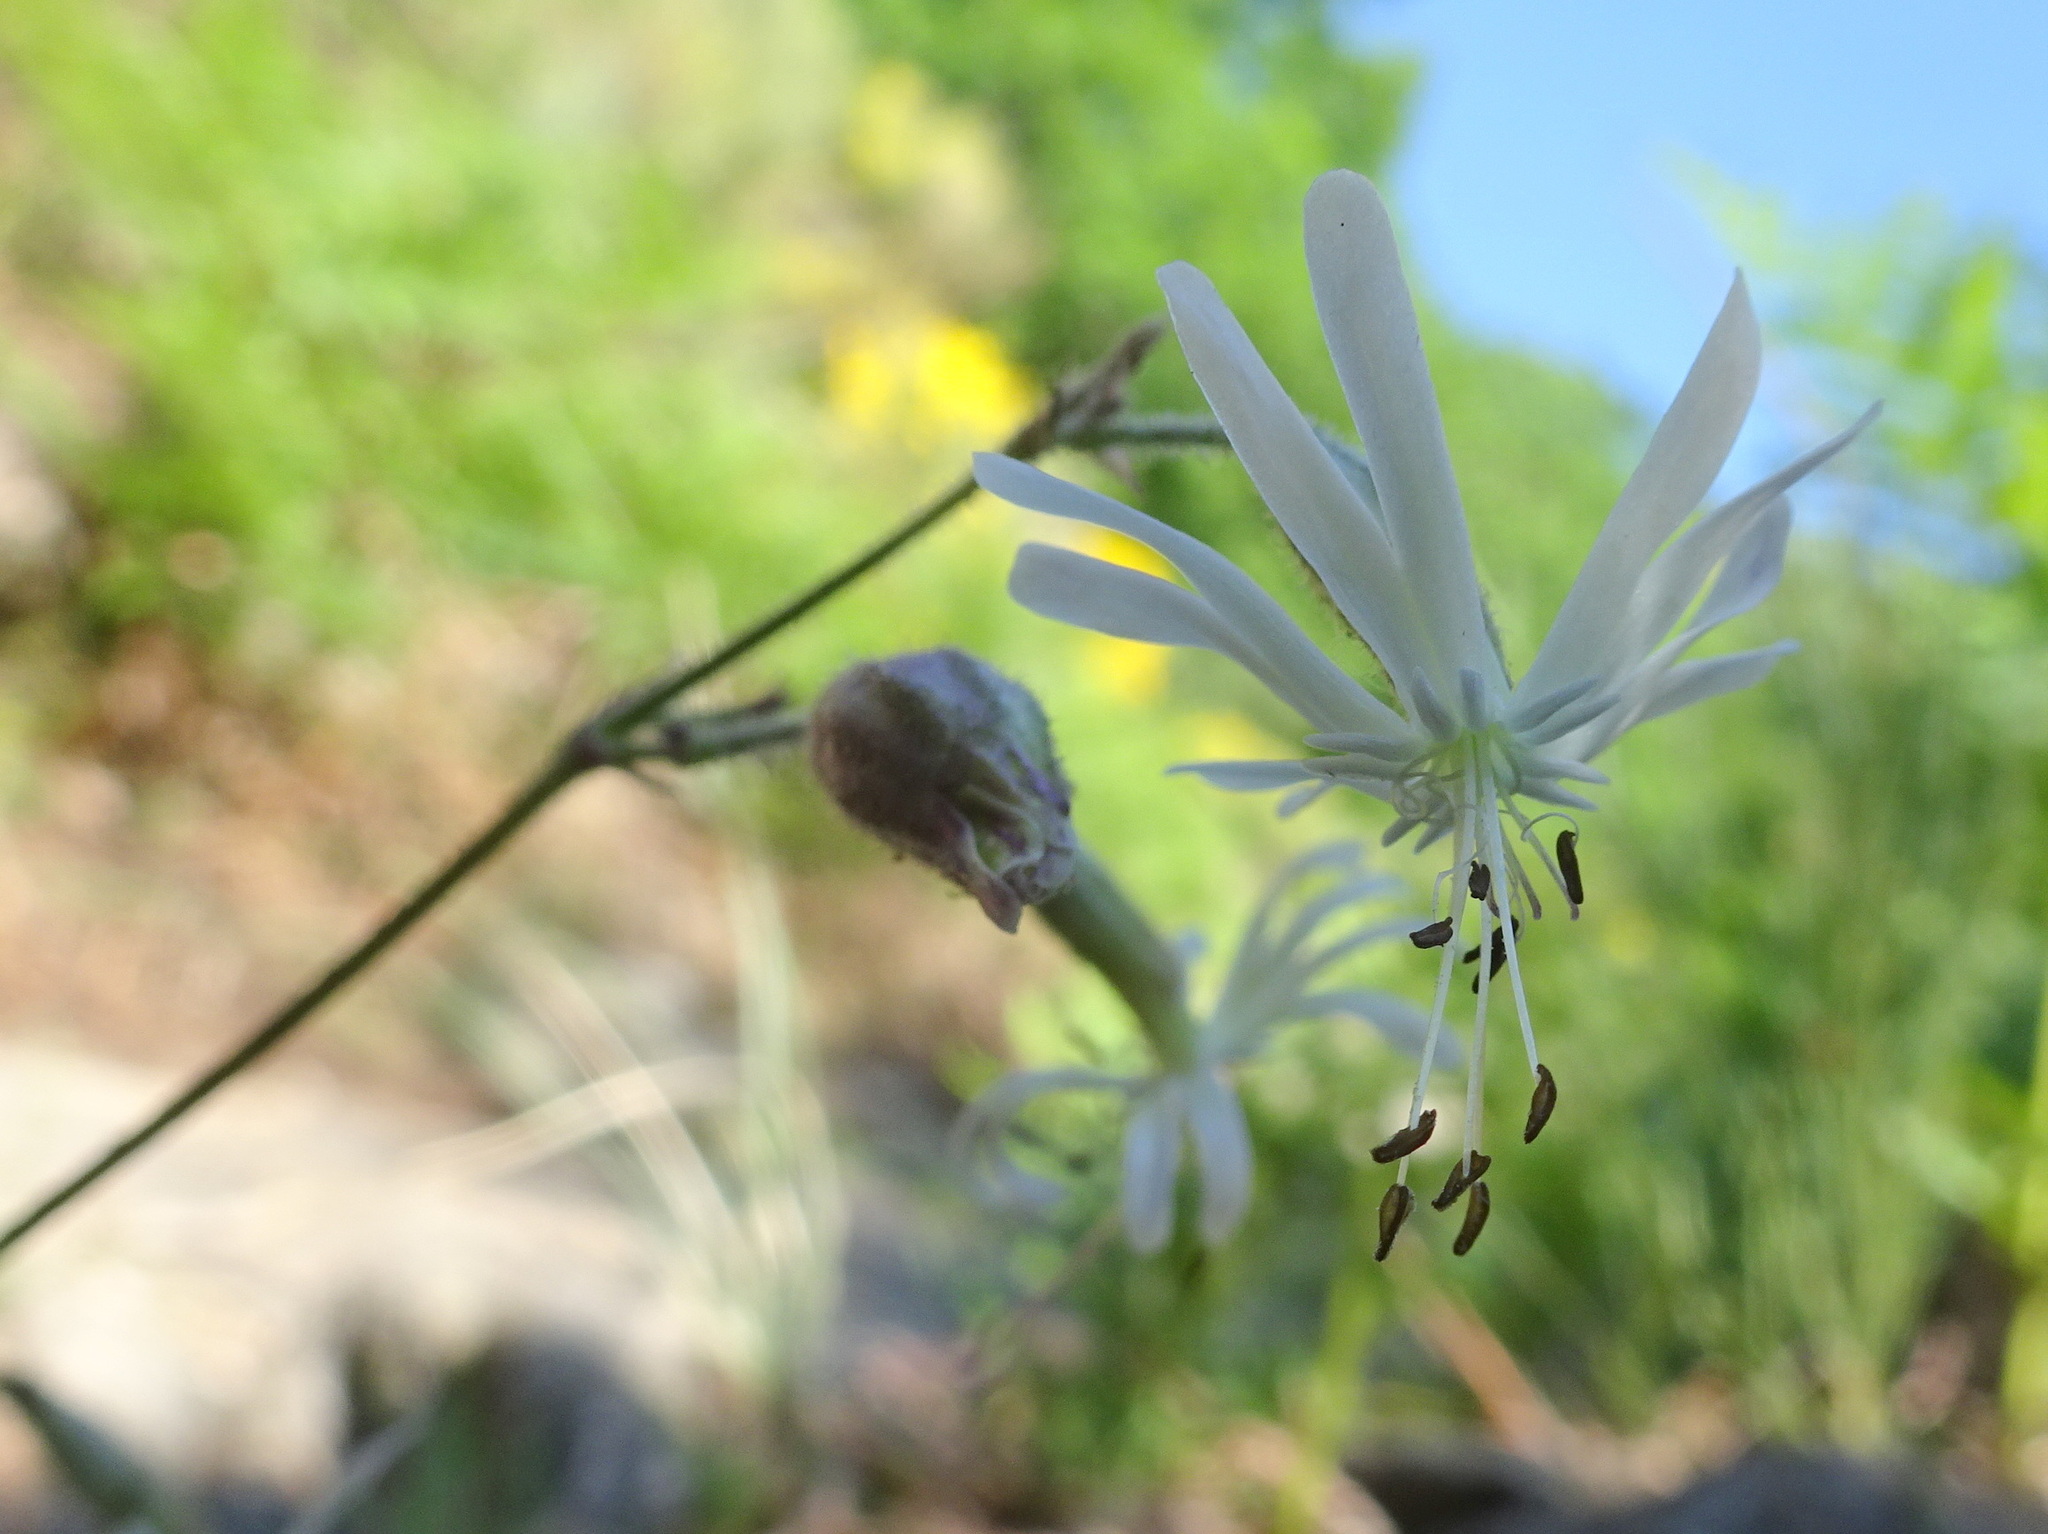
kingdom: Plantae
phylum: Tracheophyta
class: Magnoliopsida
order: Caryophyllales
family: Caryophyllaceae
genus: Silene
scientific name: Silene nutans
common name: Nottingham catchfly
